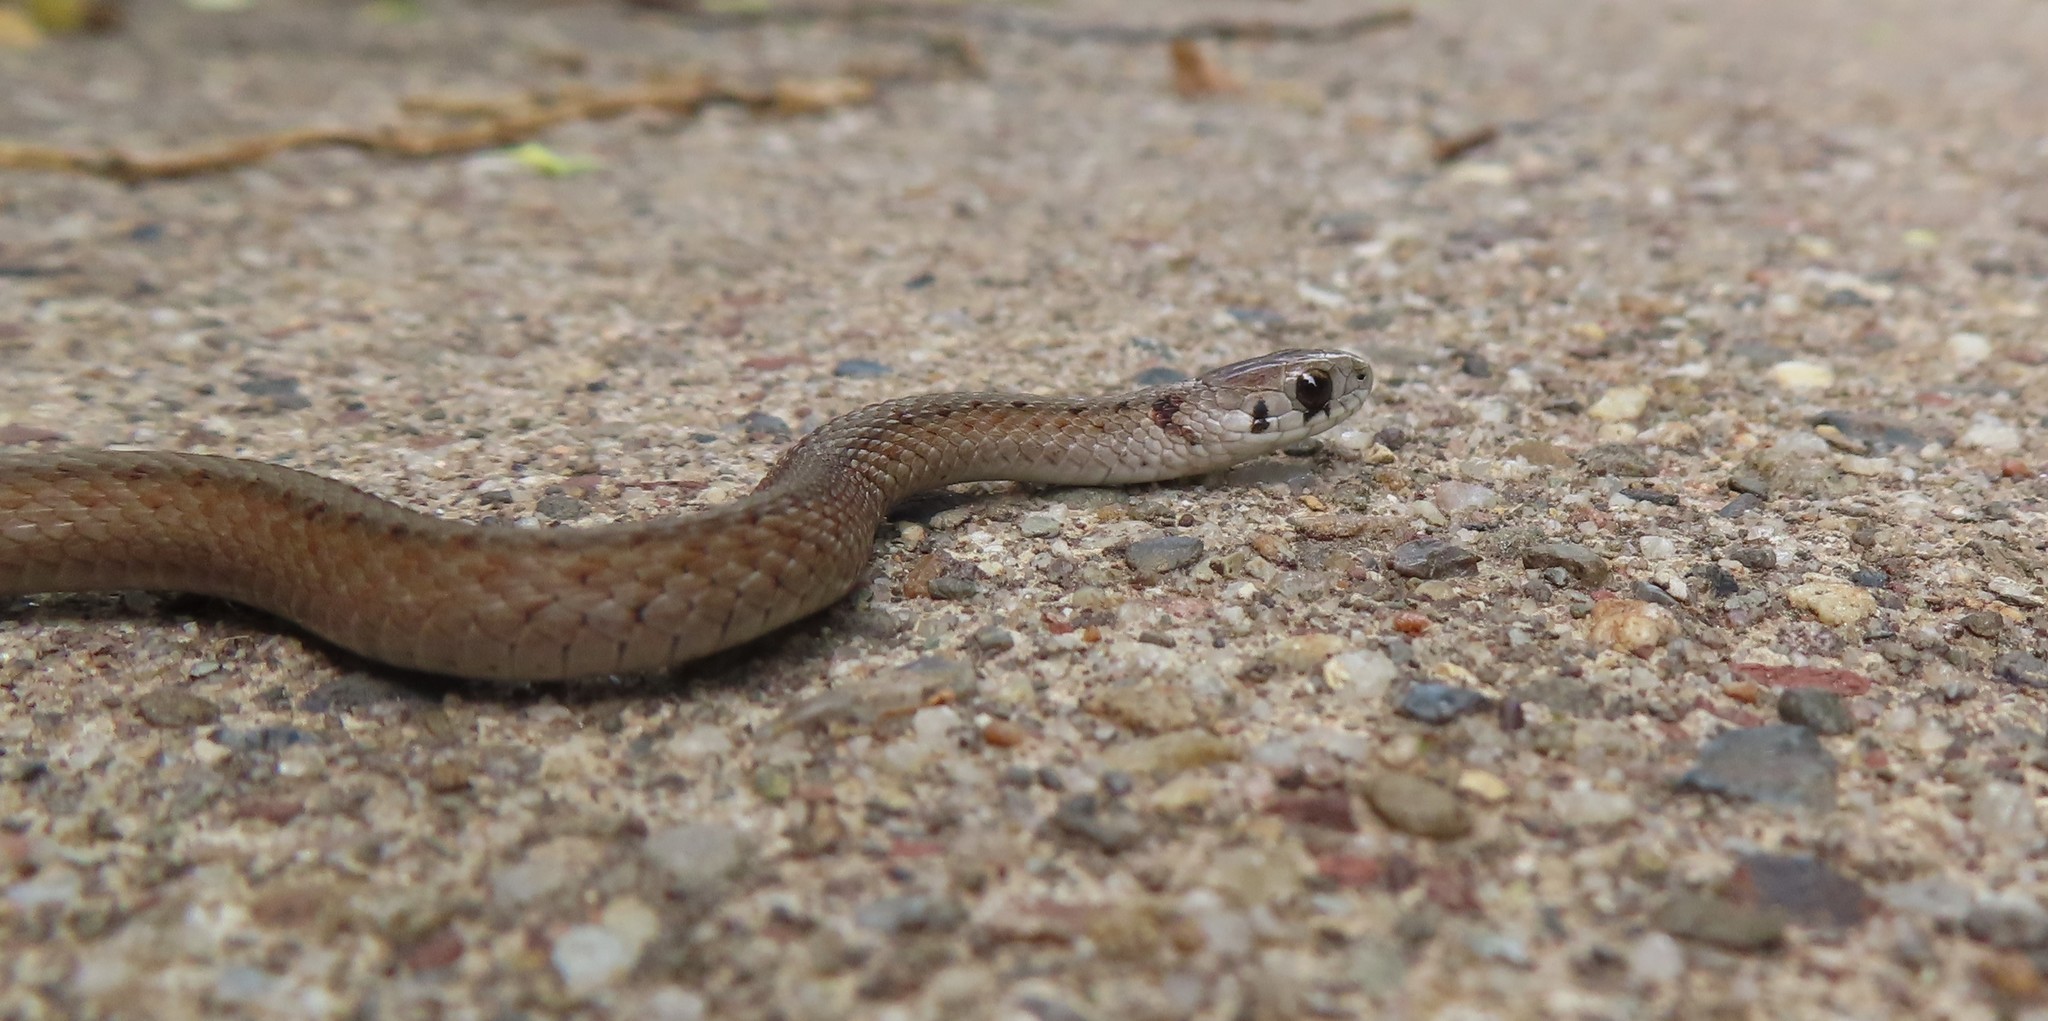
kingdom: Animalia
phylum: Chordata
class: Squamata
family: Colubridae
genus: Storeria
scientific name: Storeria dekayi
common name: (dekay’s) brown snake
